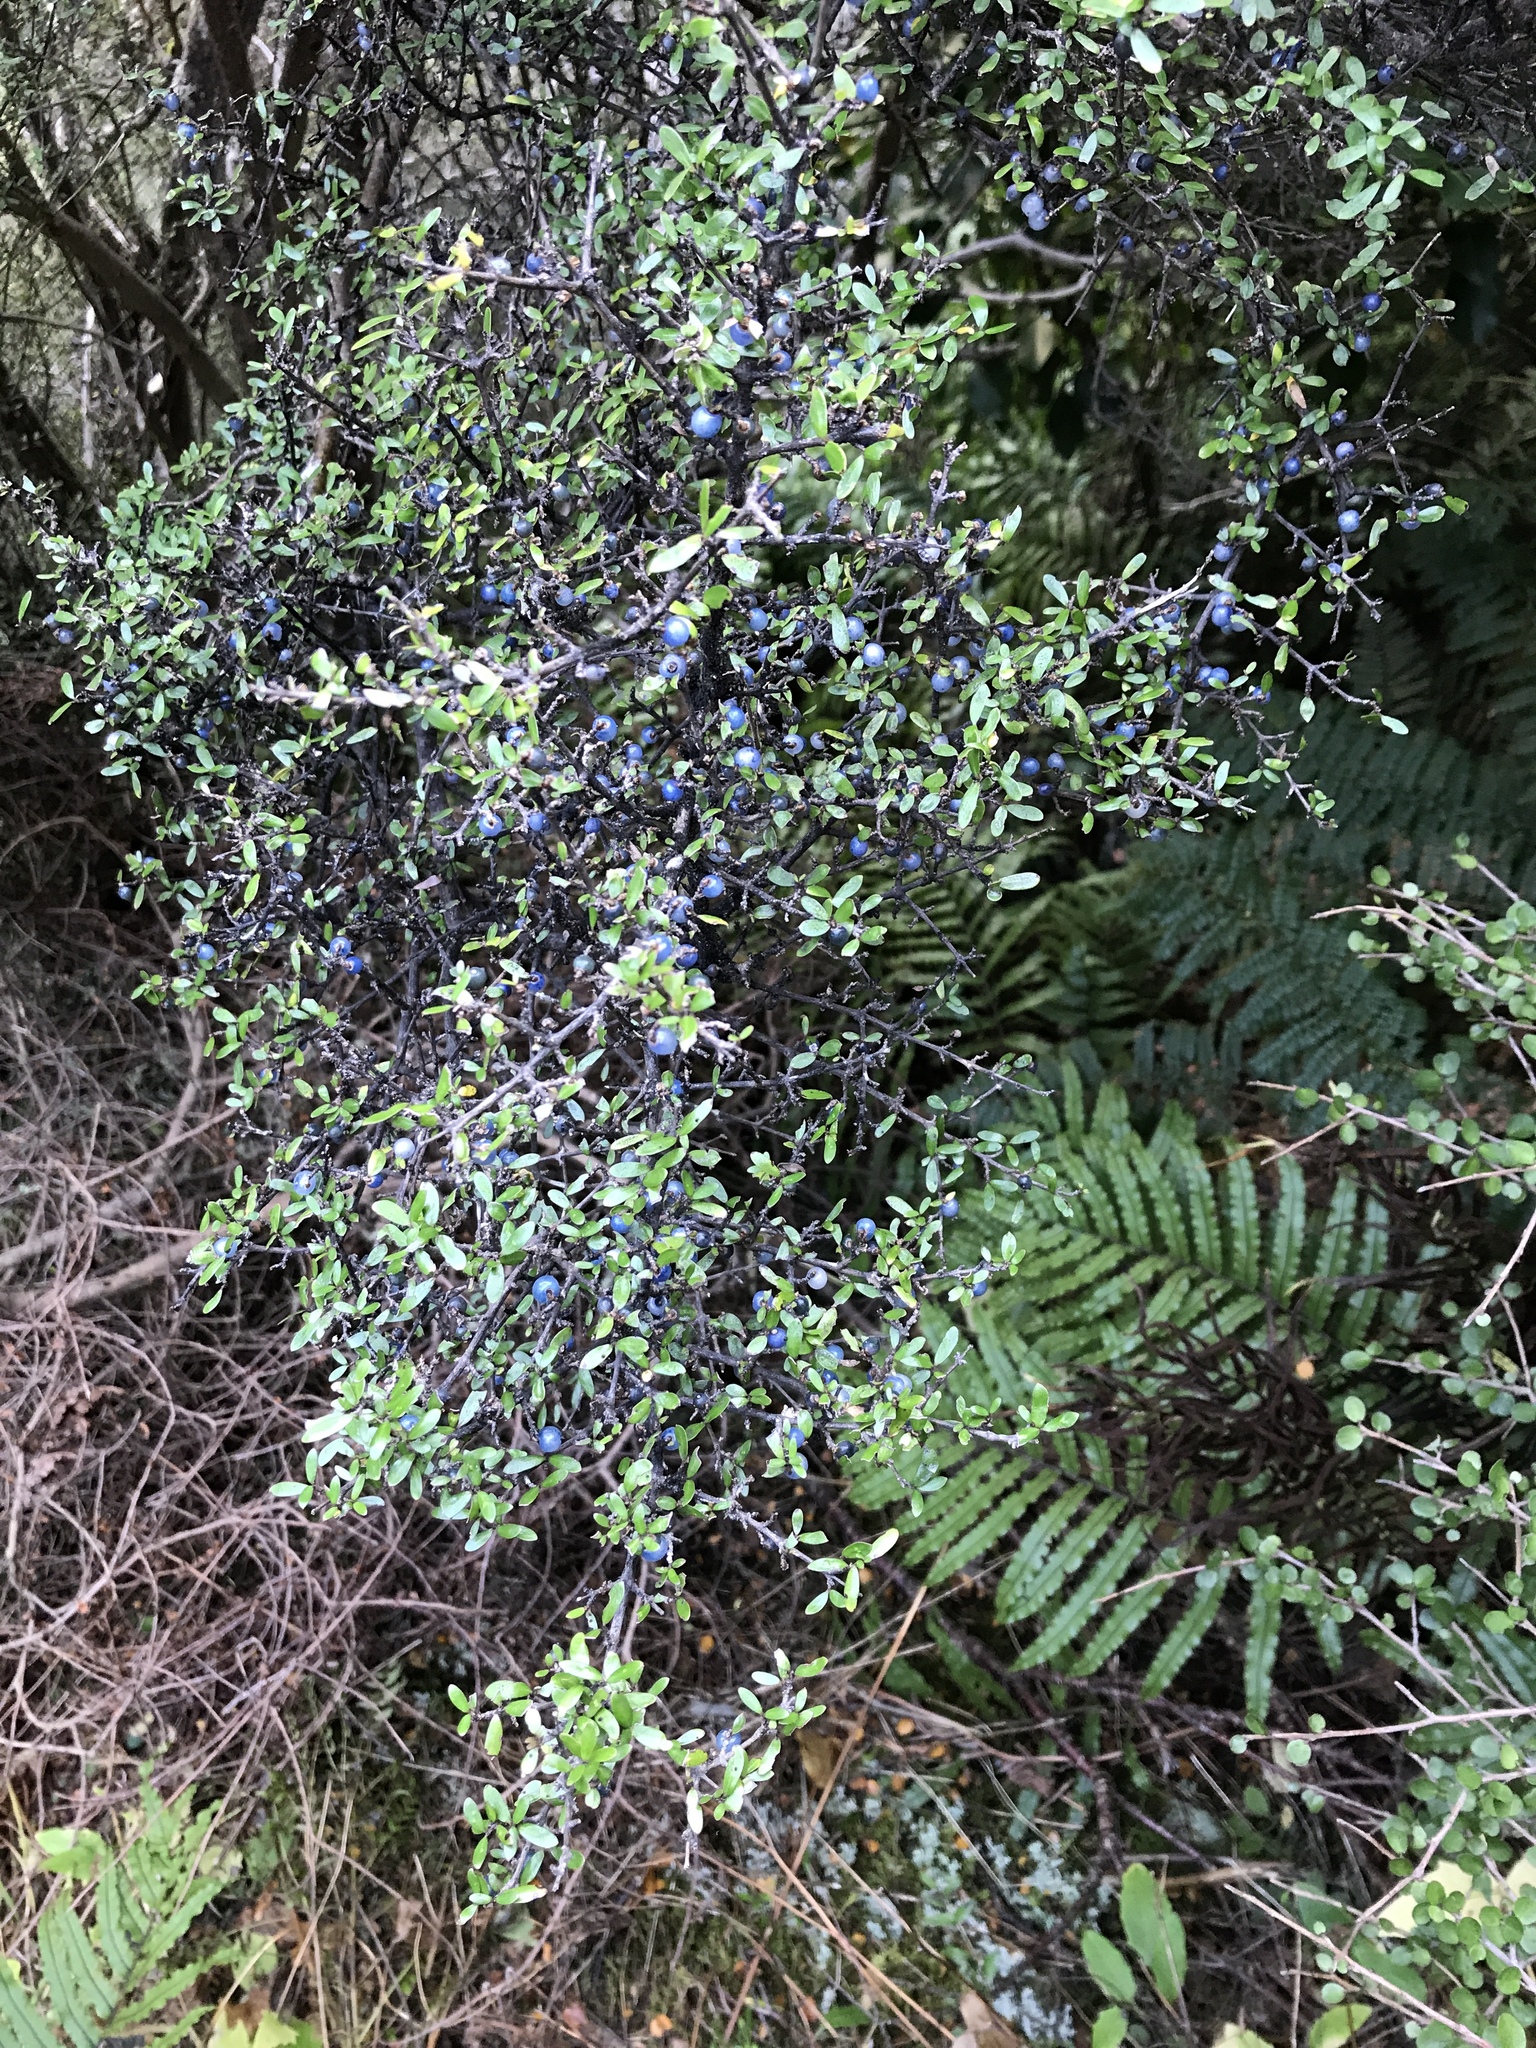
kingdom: Plantae
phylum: Tracheophyta
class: Magnoliopsida
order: Gentianales
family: Rubiaceae
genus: Coprosma
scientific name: Coprosma propinqua
